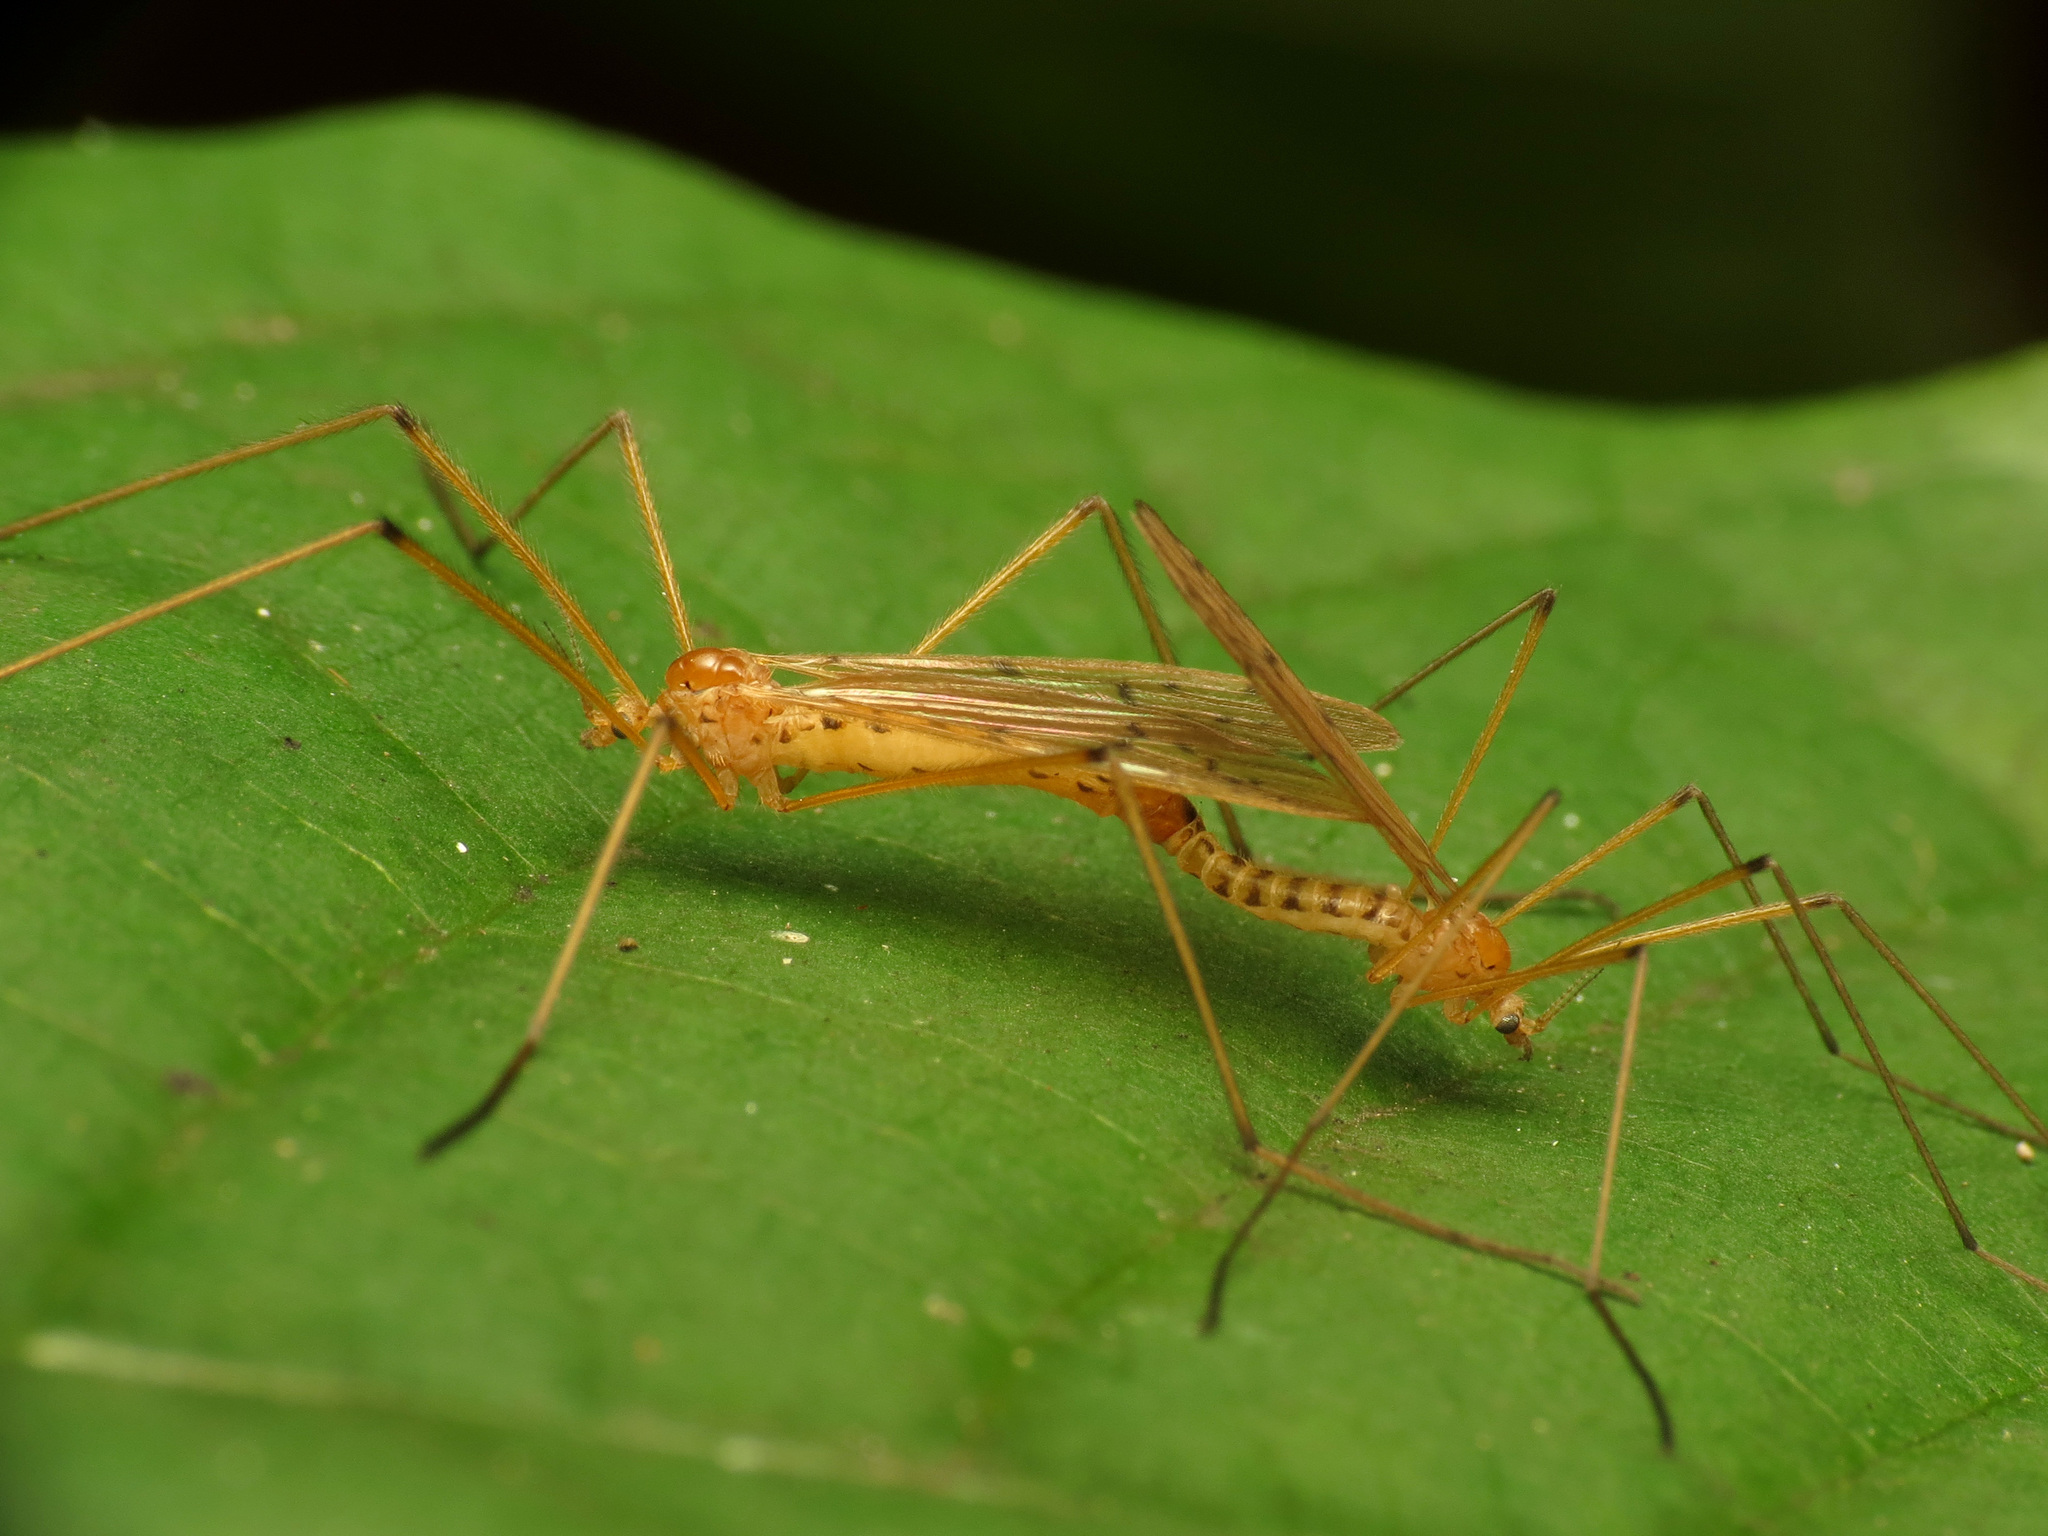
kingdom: Animalia
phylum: Arthropoda
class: Insecta
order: Diptera
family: Limoniidae
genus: Cladura
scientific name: Cladura flavoferruginea
